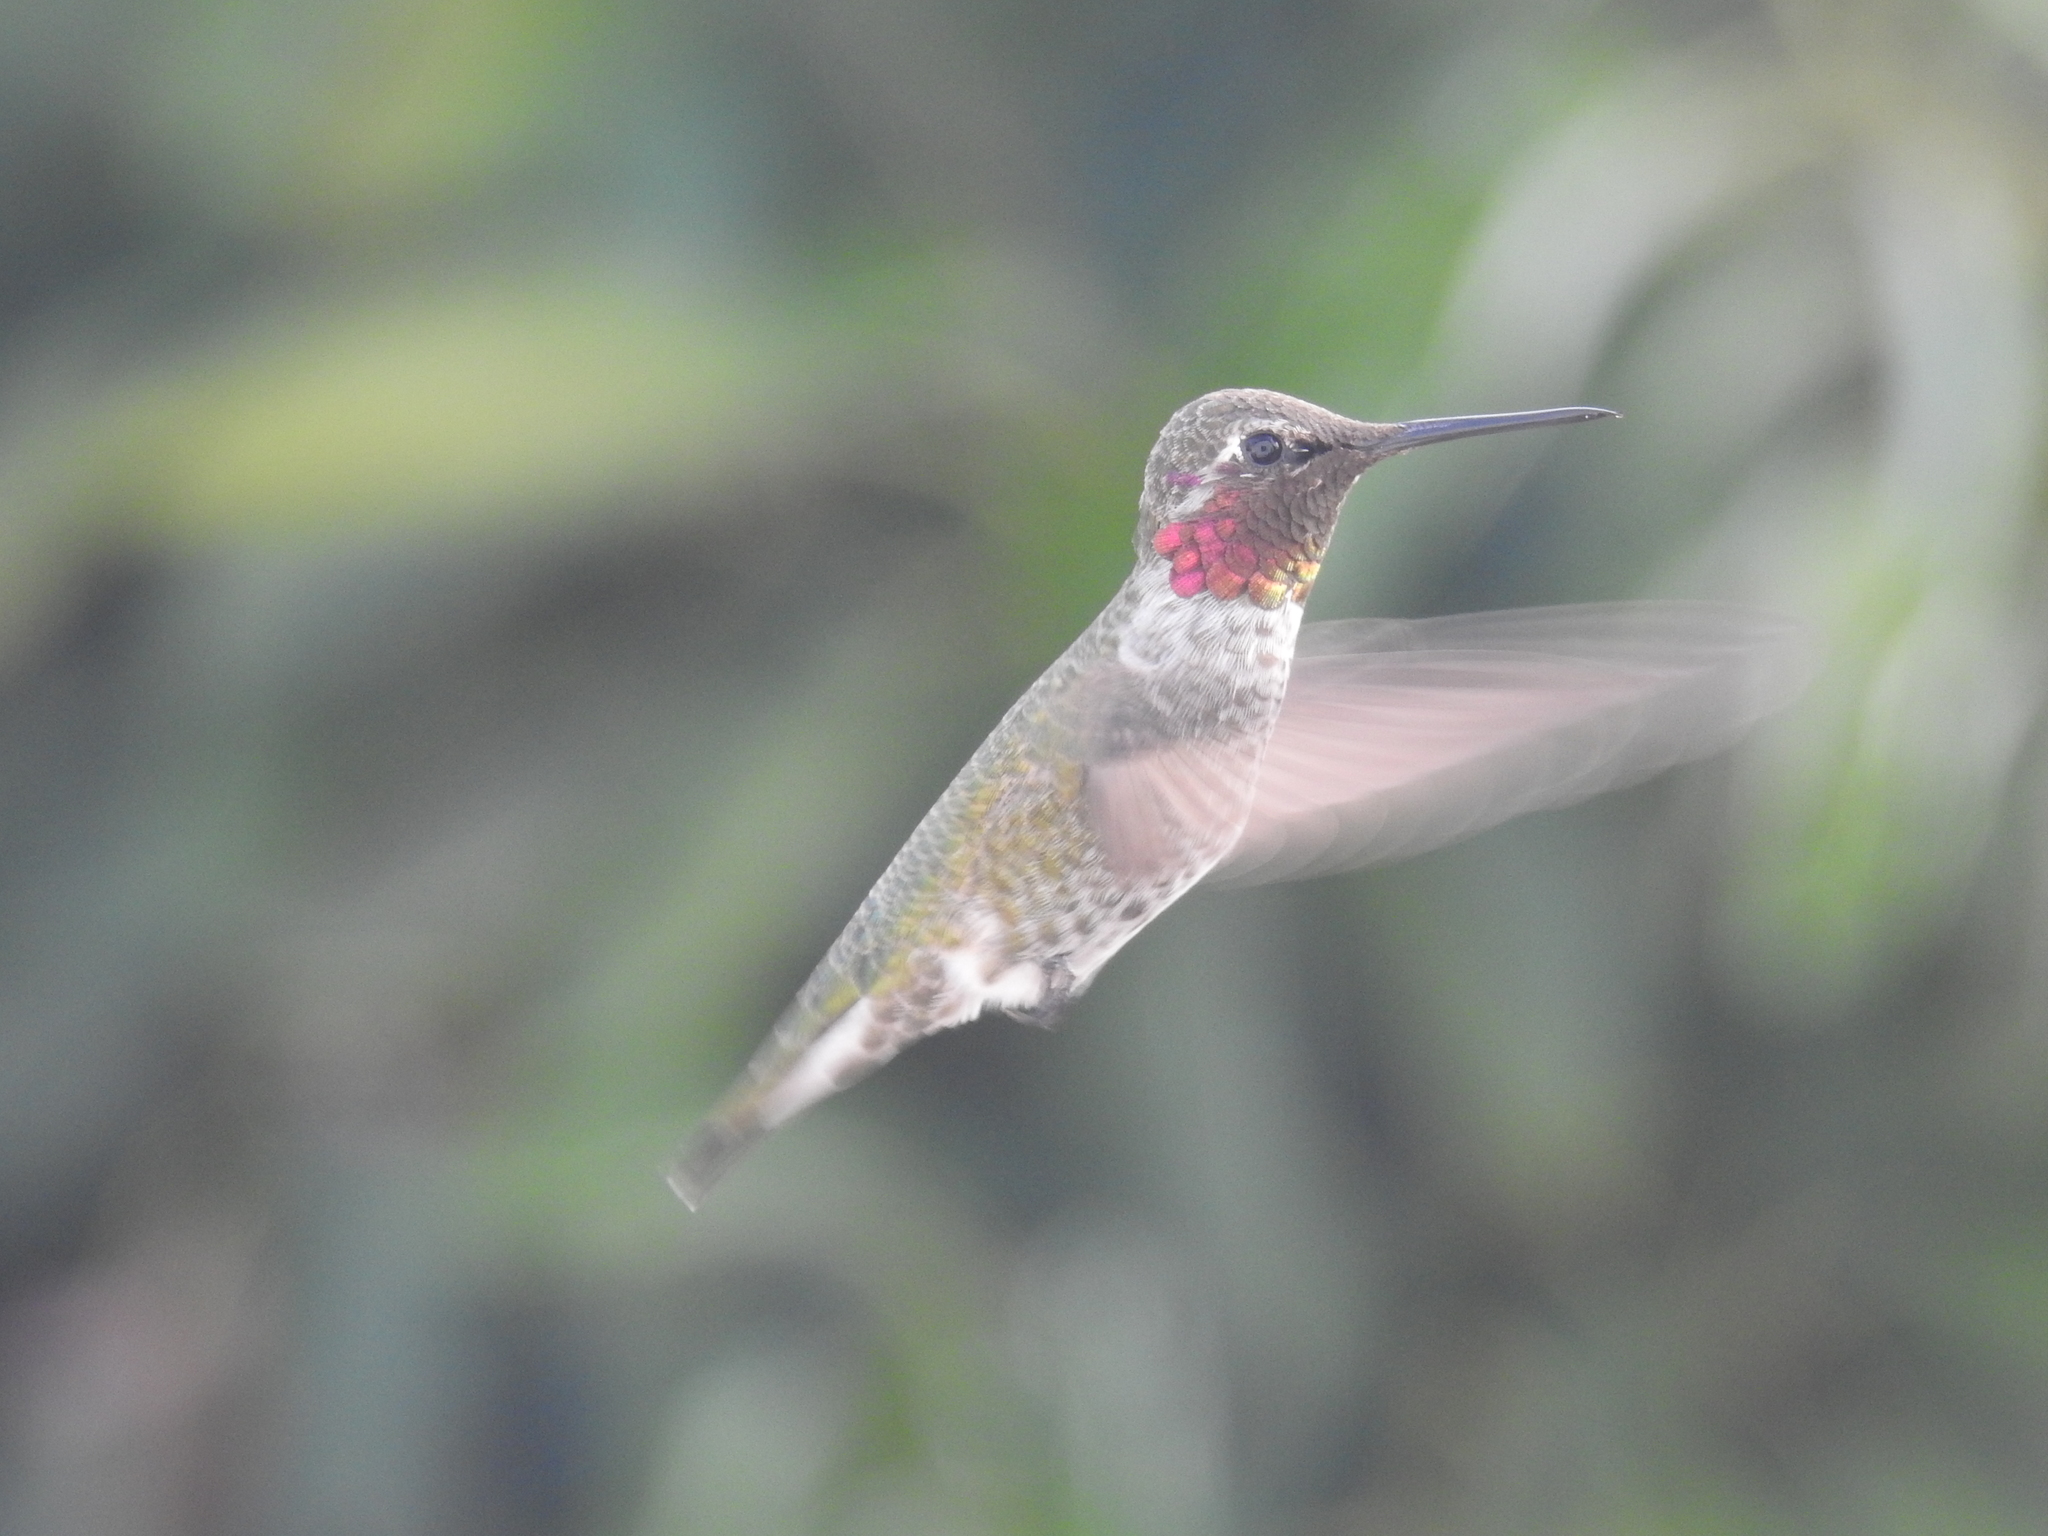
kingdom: Animalia
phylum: Chordata
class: Aves
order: Apodiformes
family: Trochilidae
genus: Calypte
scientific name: Calypte anna
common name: Anna's hummingbird
